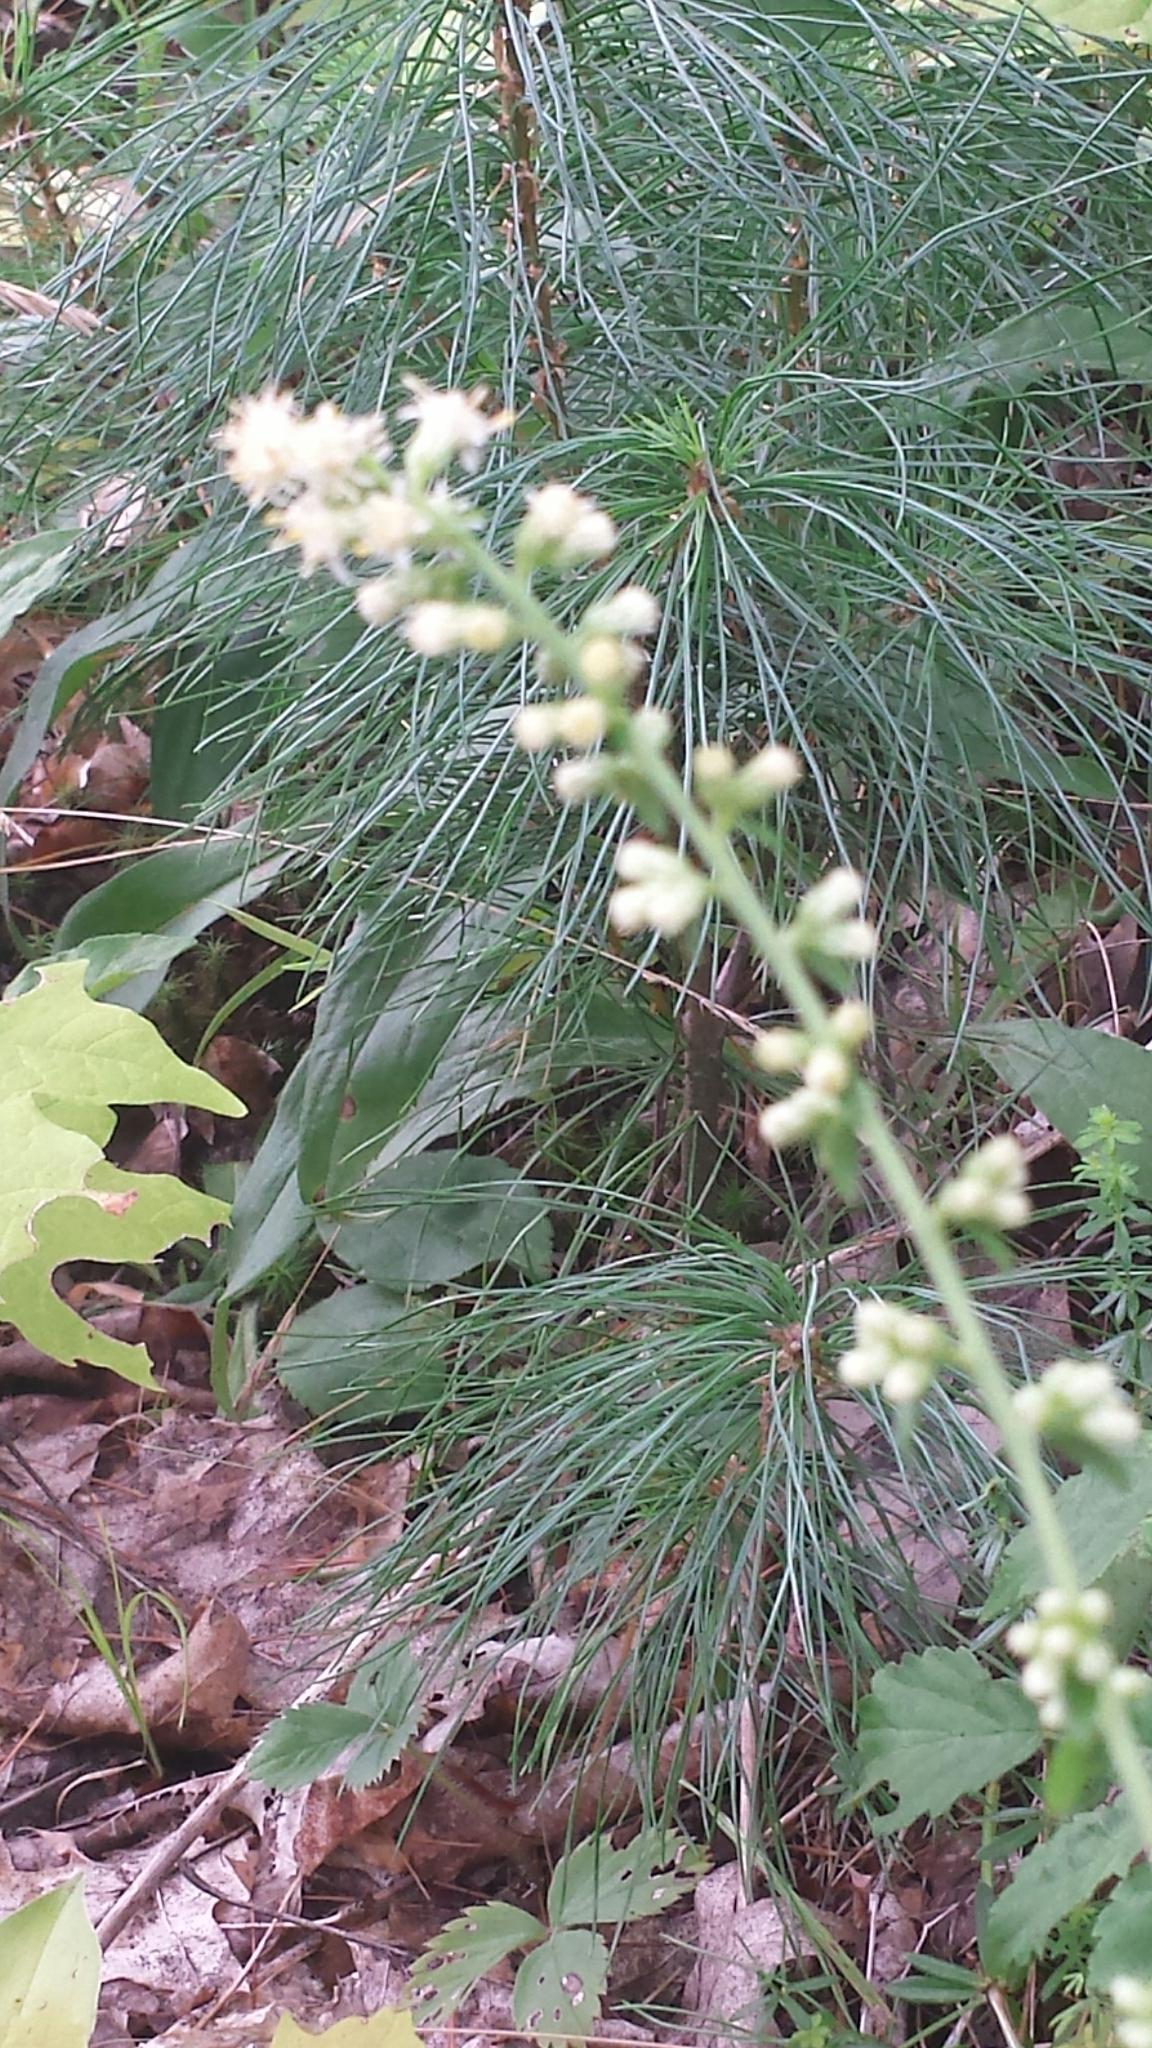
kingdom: Plantae
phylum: Tracheophyta
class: Magnoliopsida
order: Asterales
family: Asteraceae
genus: Solidago
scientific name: Solidago bicolor
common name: Silverrod
